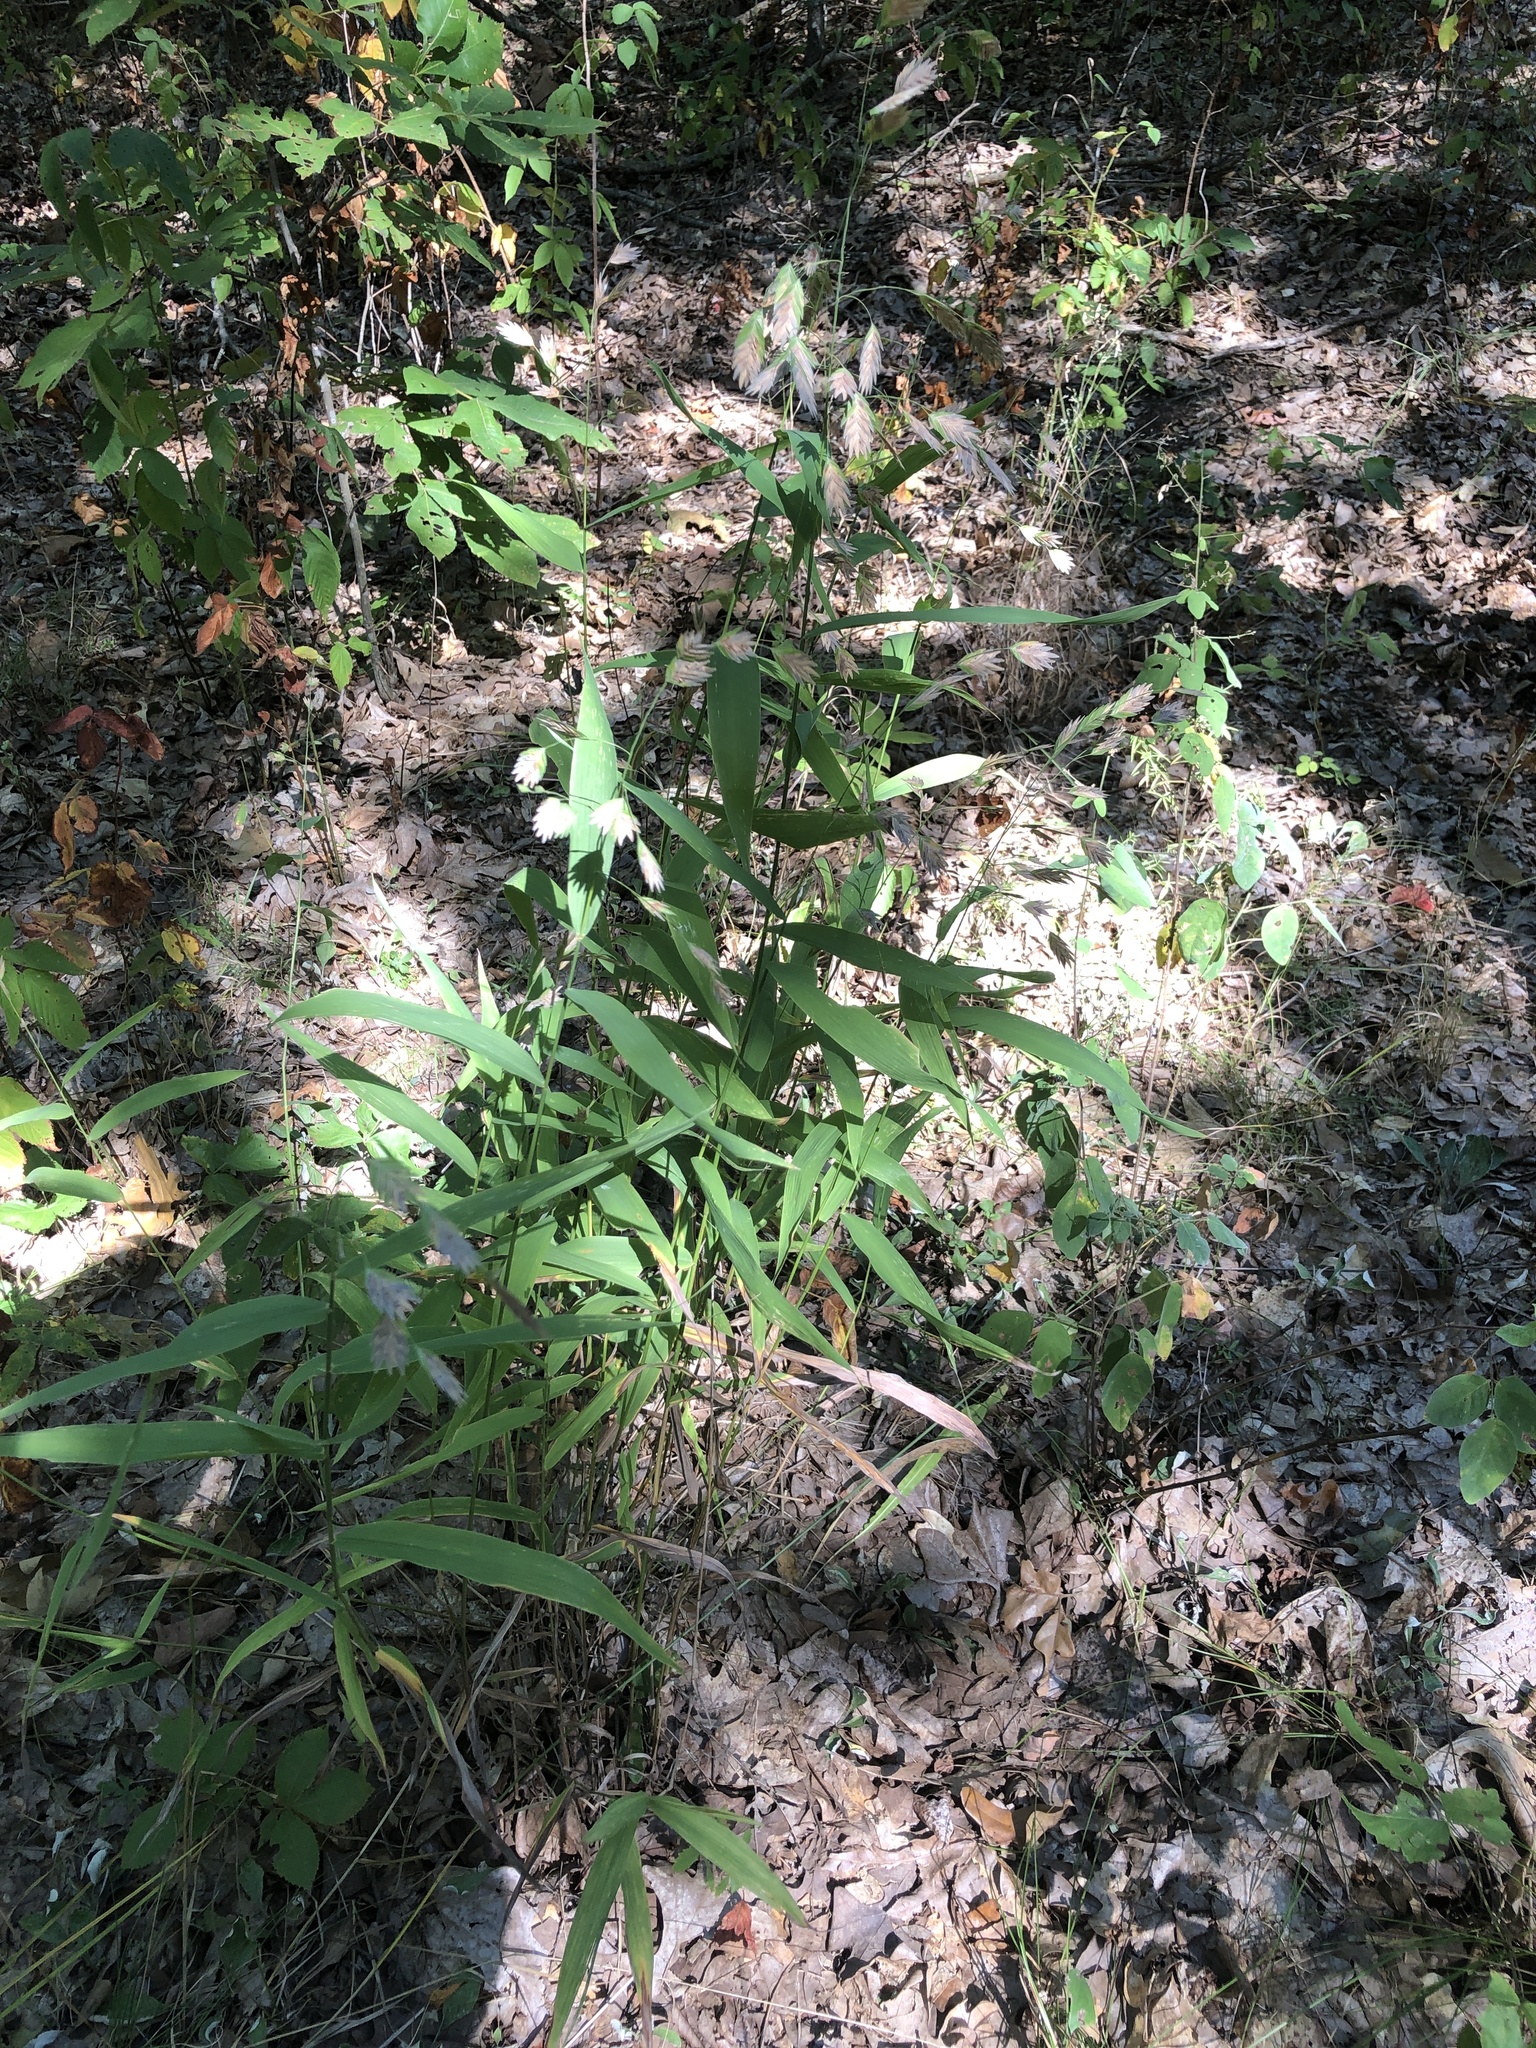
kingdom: Plantae
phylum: Tracheophyta
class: Liliopsida
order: Poales
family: Poaceae
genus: Chasmanthium
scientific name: Chasmanthium latifolium
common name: Broad-leaved chasmanthium
